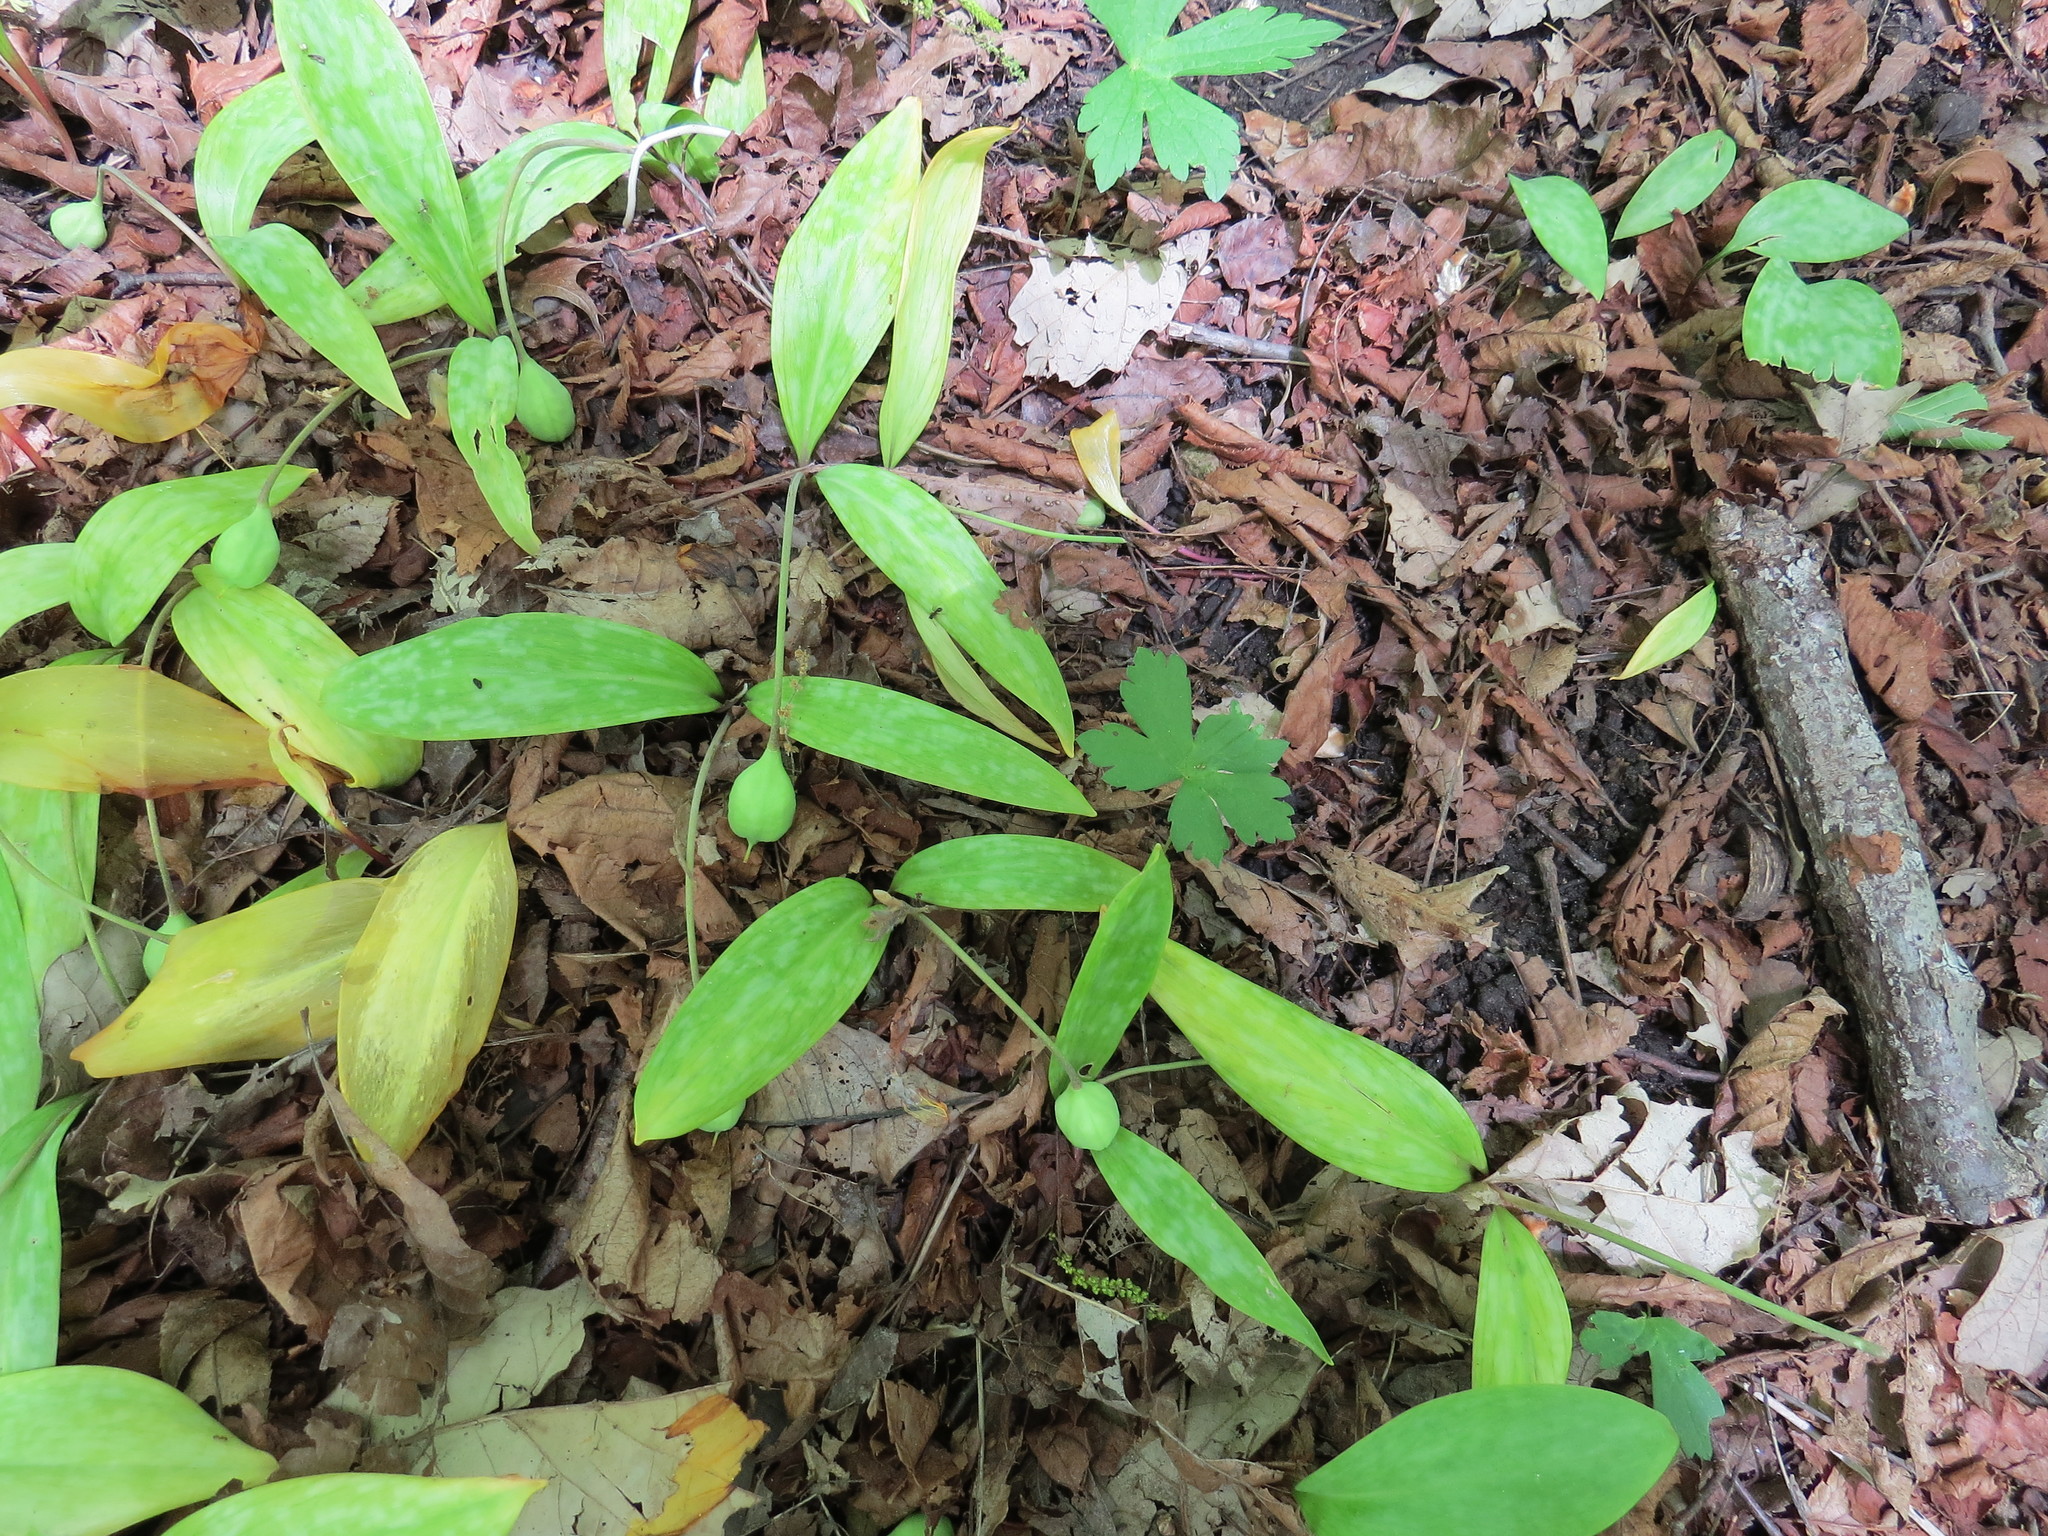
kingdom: Plantae
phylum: Tracheophyta
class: Liliopsida
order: Liliales
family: Liliaceae
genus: Erythronium
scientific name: Erythronium americanum
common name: Yellow adder's-tongue
